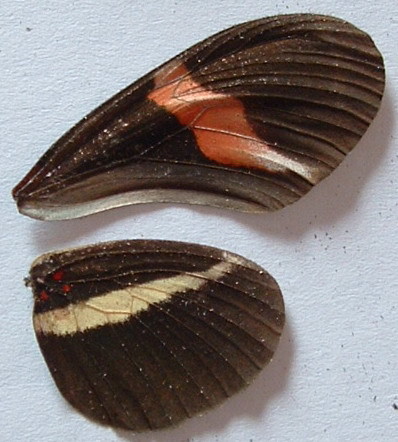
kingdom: Animalia
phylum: Arthropoda
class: Insecta
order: Lepidoptera
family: Nymphalidae
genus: Tirumala
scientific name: Tirumala petiverana
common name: Blue monarch
